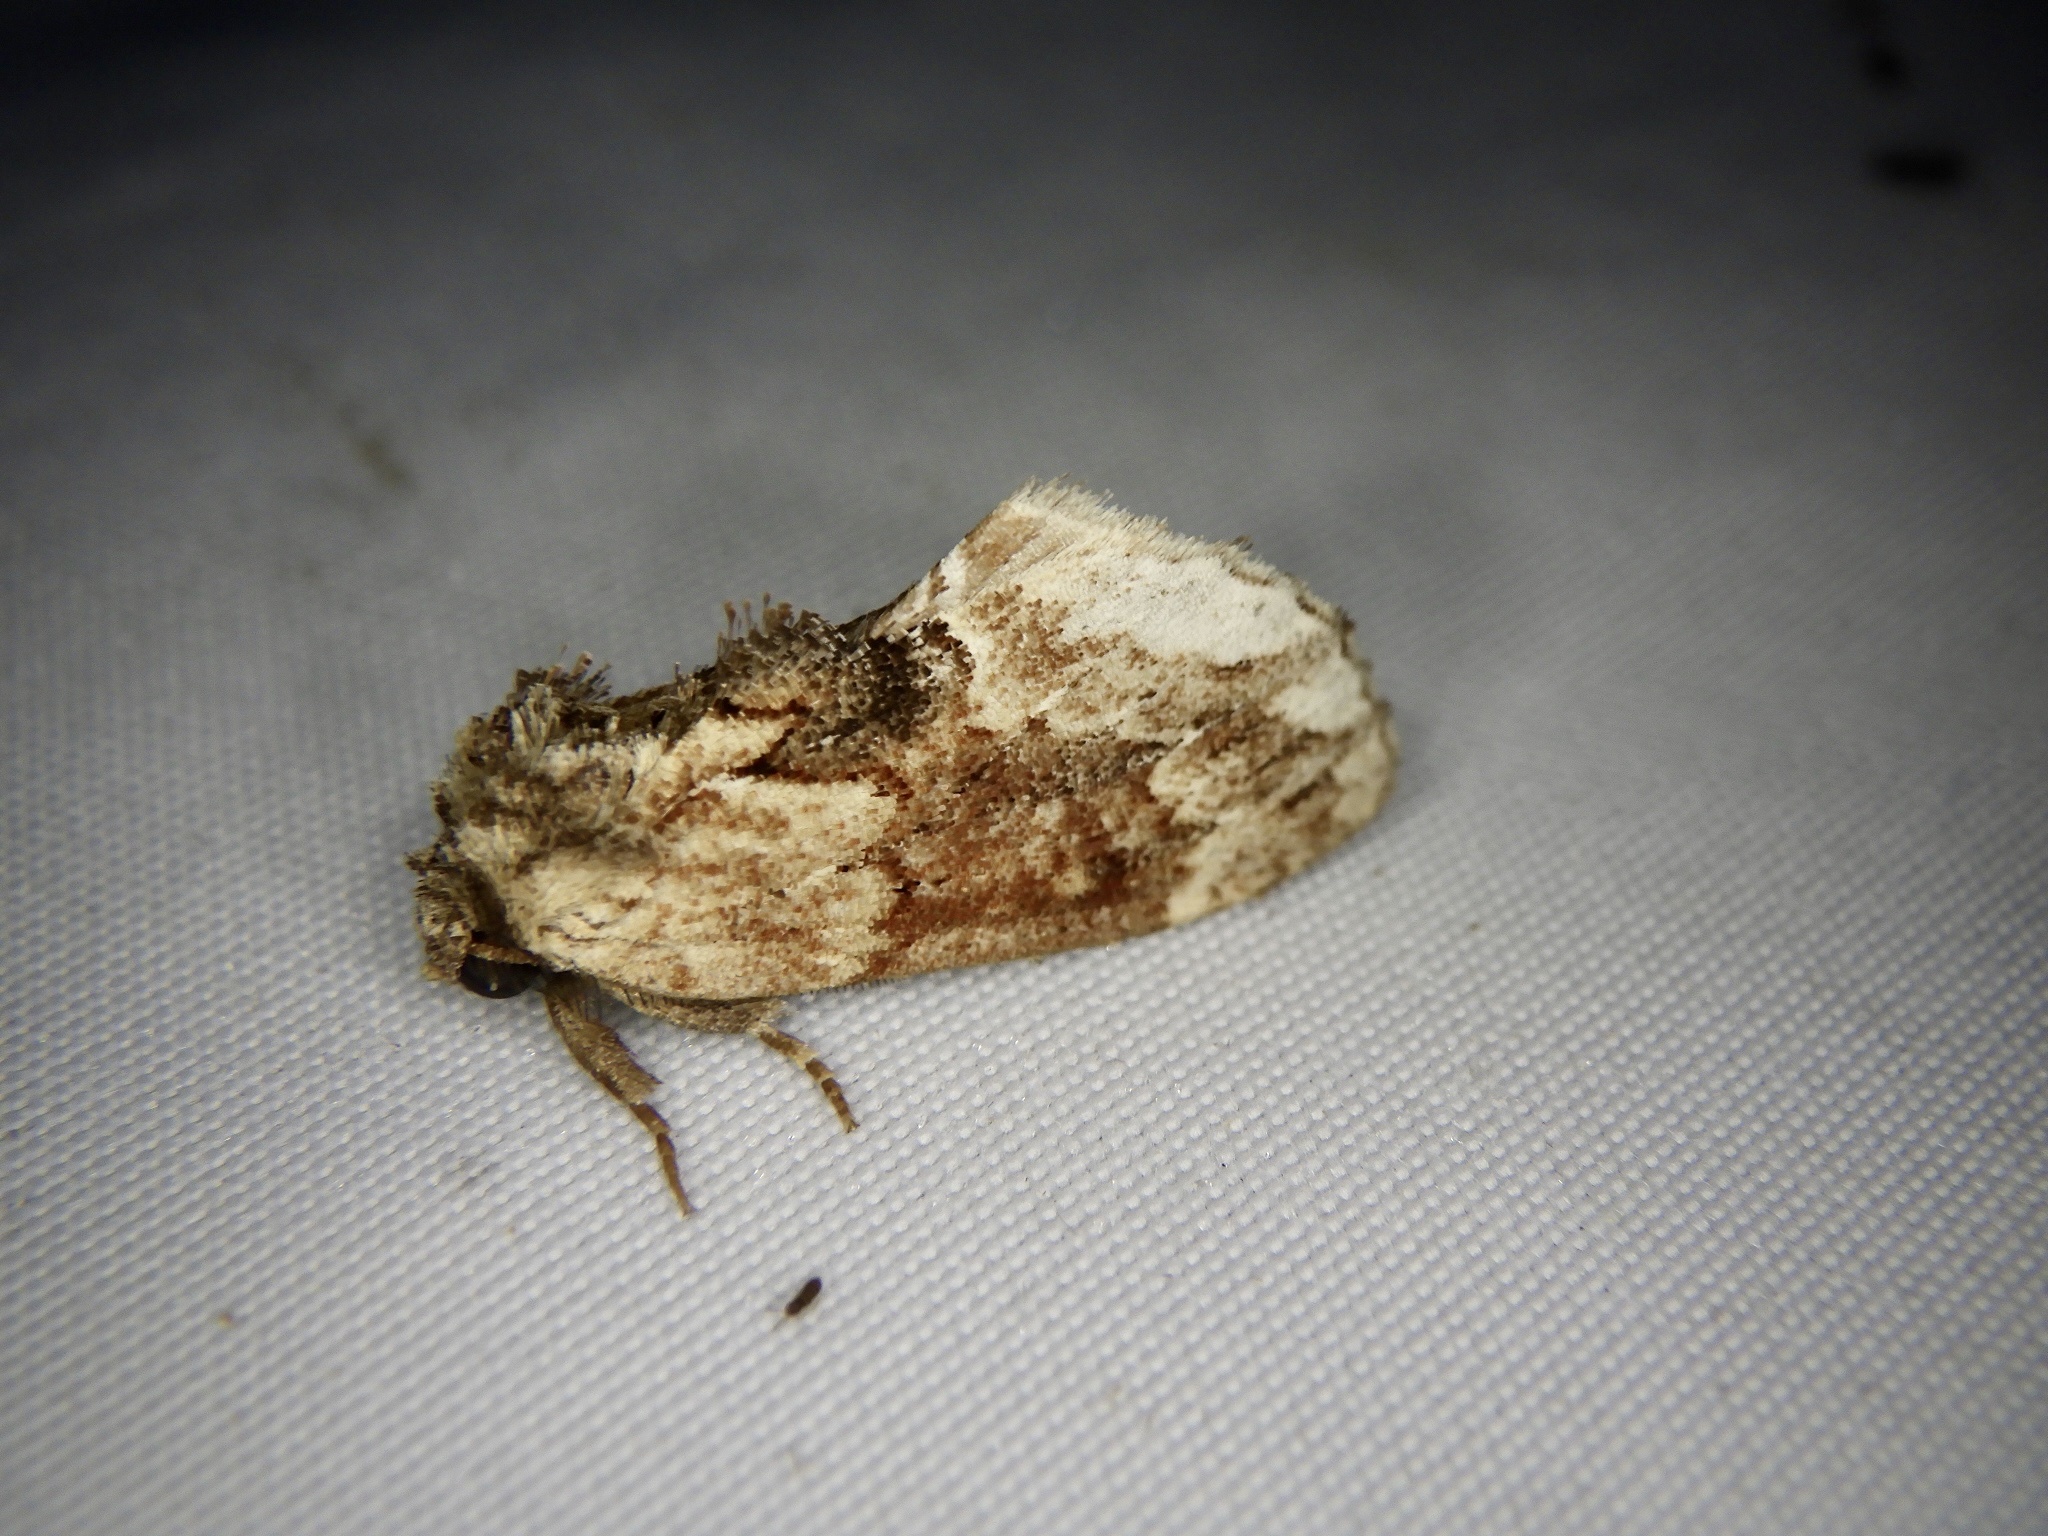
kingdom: Animalia
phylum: Arthropoda
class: Insecta
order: Lepidoptera
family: Notodontidae
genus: Lophontosia
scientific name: Lophontosia
